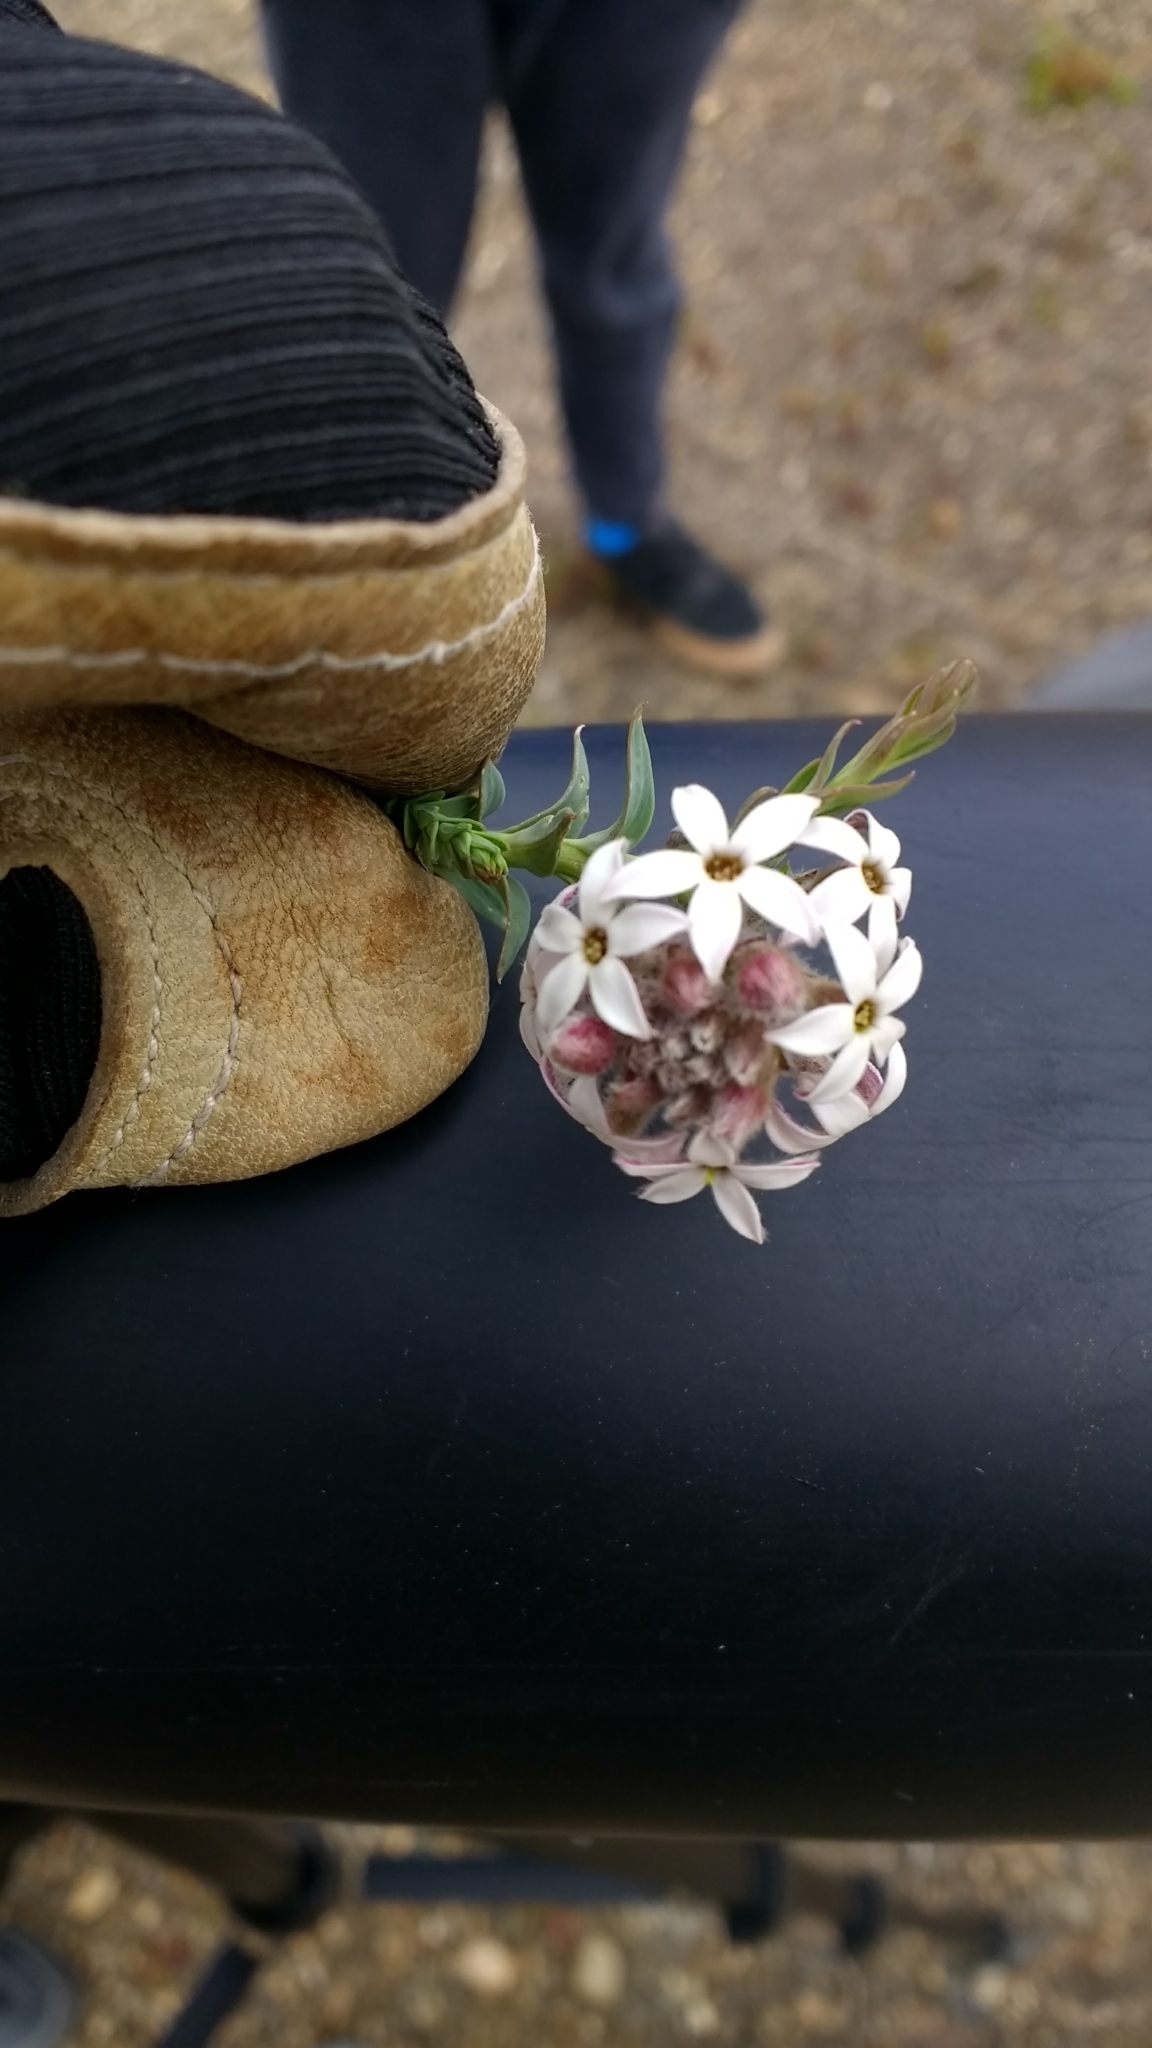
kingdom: Plantae
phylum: Tracheophyta
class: Magnoliopsida
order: Santalales
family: Schoepfiaceae
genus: Arjona
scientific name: Arjona patagonica
